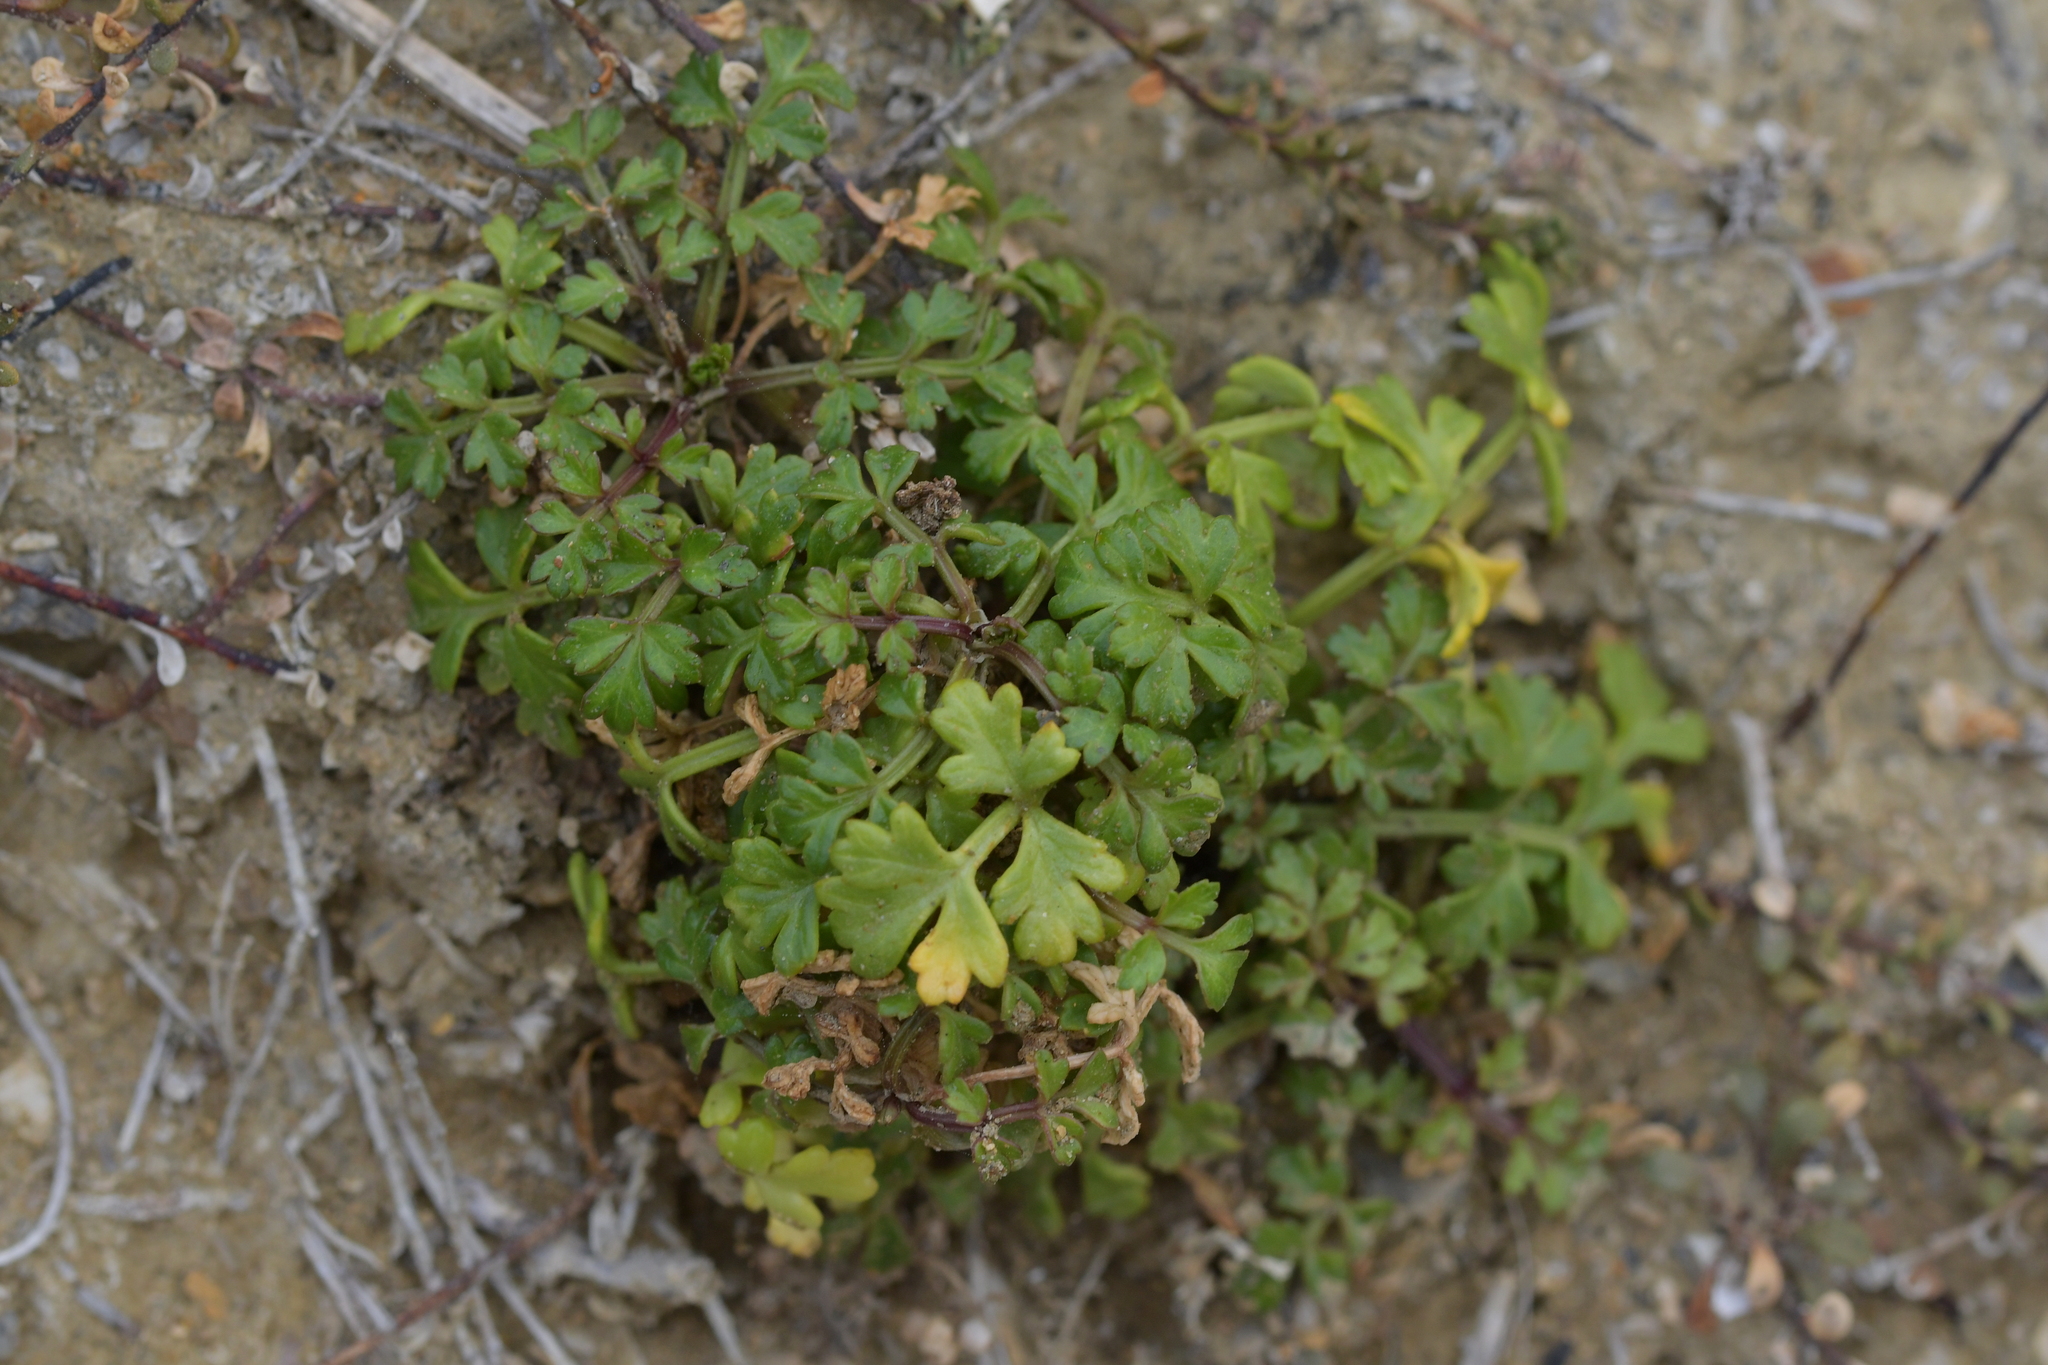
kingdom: Plantae
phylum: Tracheophyta
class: Magnoliopsida
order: Apiales
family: Apiaceae
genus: Apium
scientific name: Apium prostratum
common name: Prostrate marshwort
